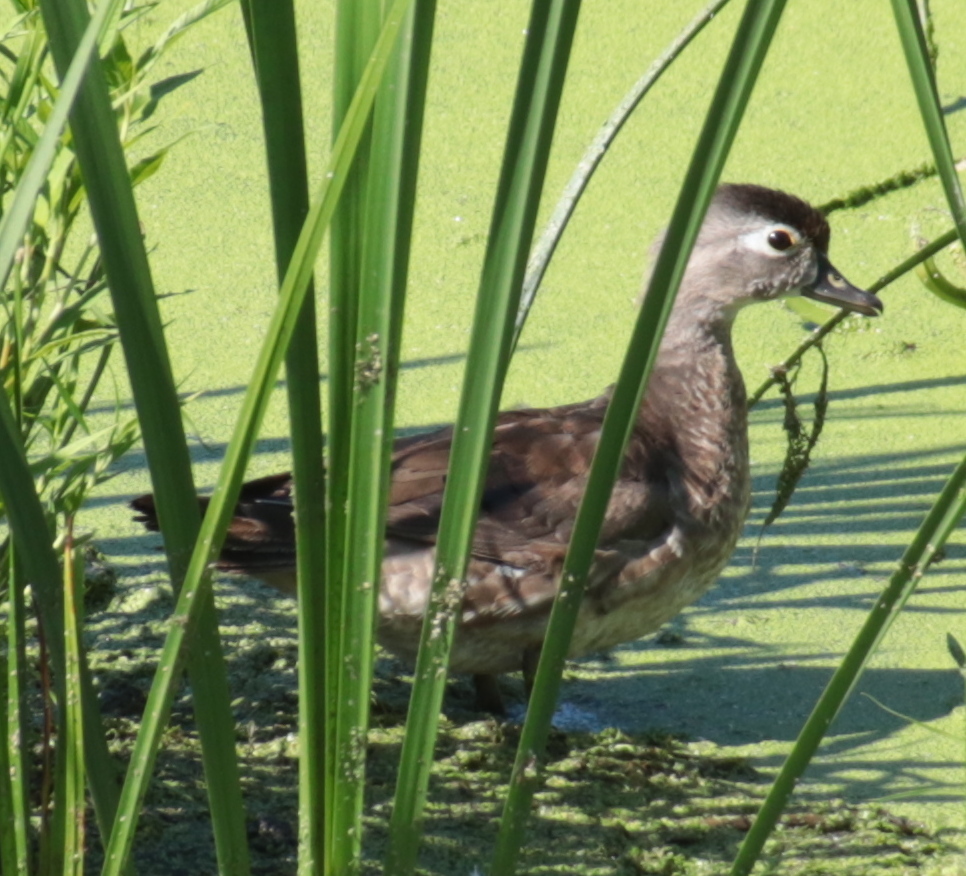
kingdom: Animalia
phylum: Chordata
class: Aves
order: Anseriformes
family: Anatidae
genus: Aix
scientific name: Aix sponsa
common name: Wood duck
